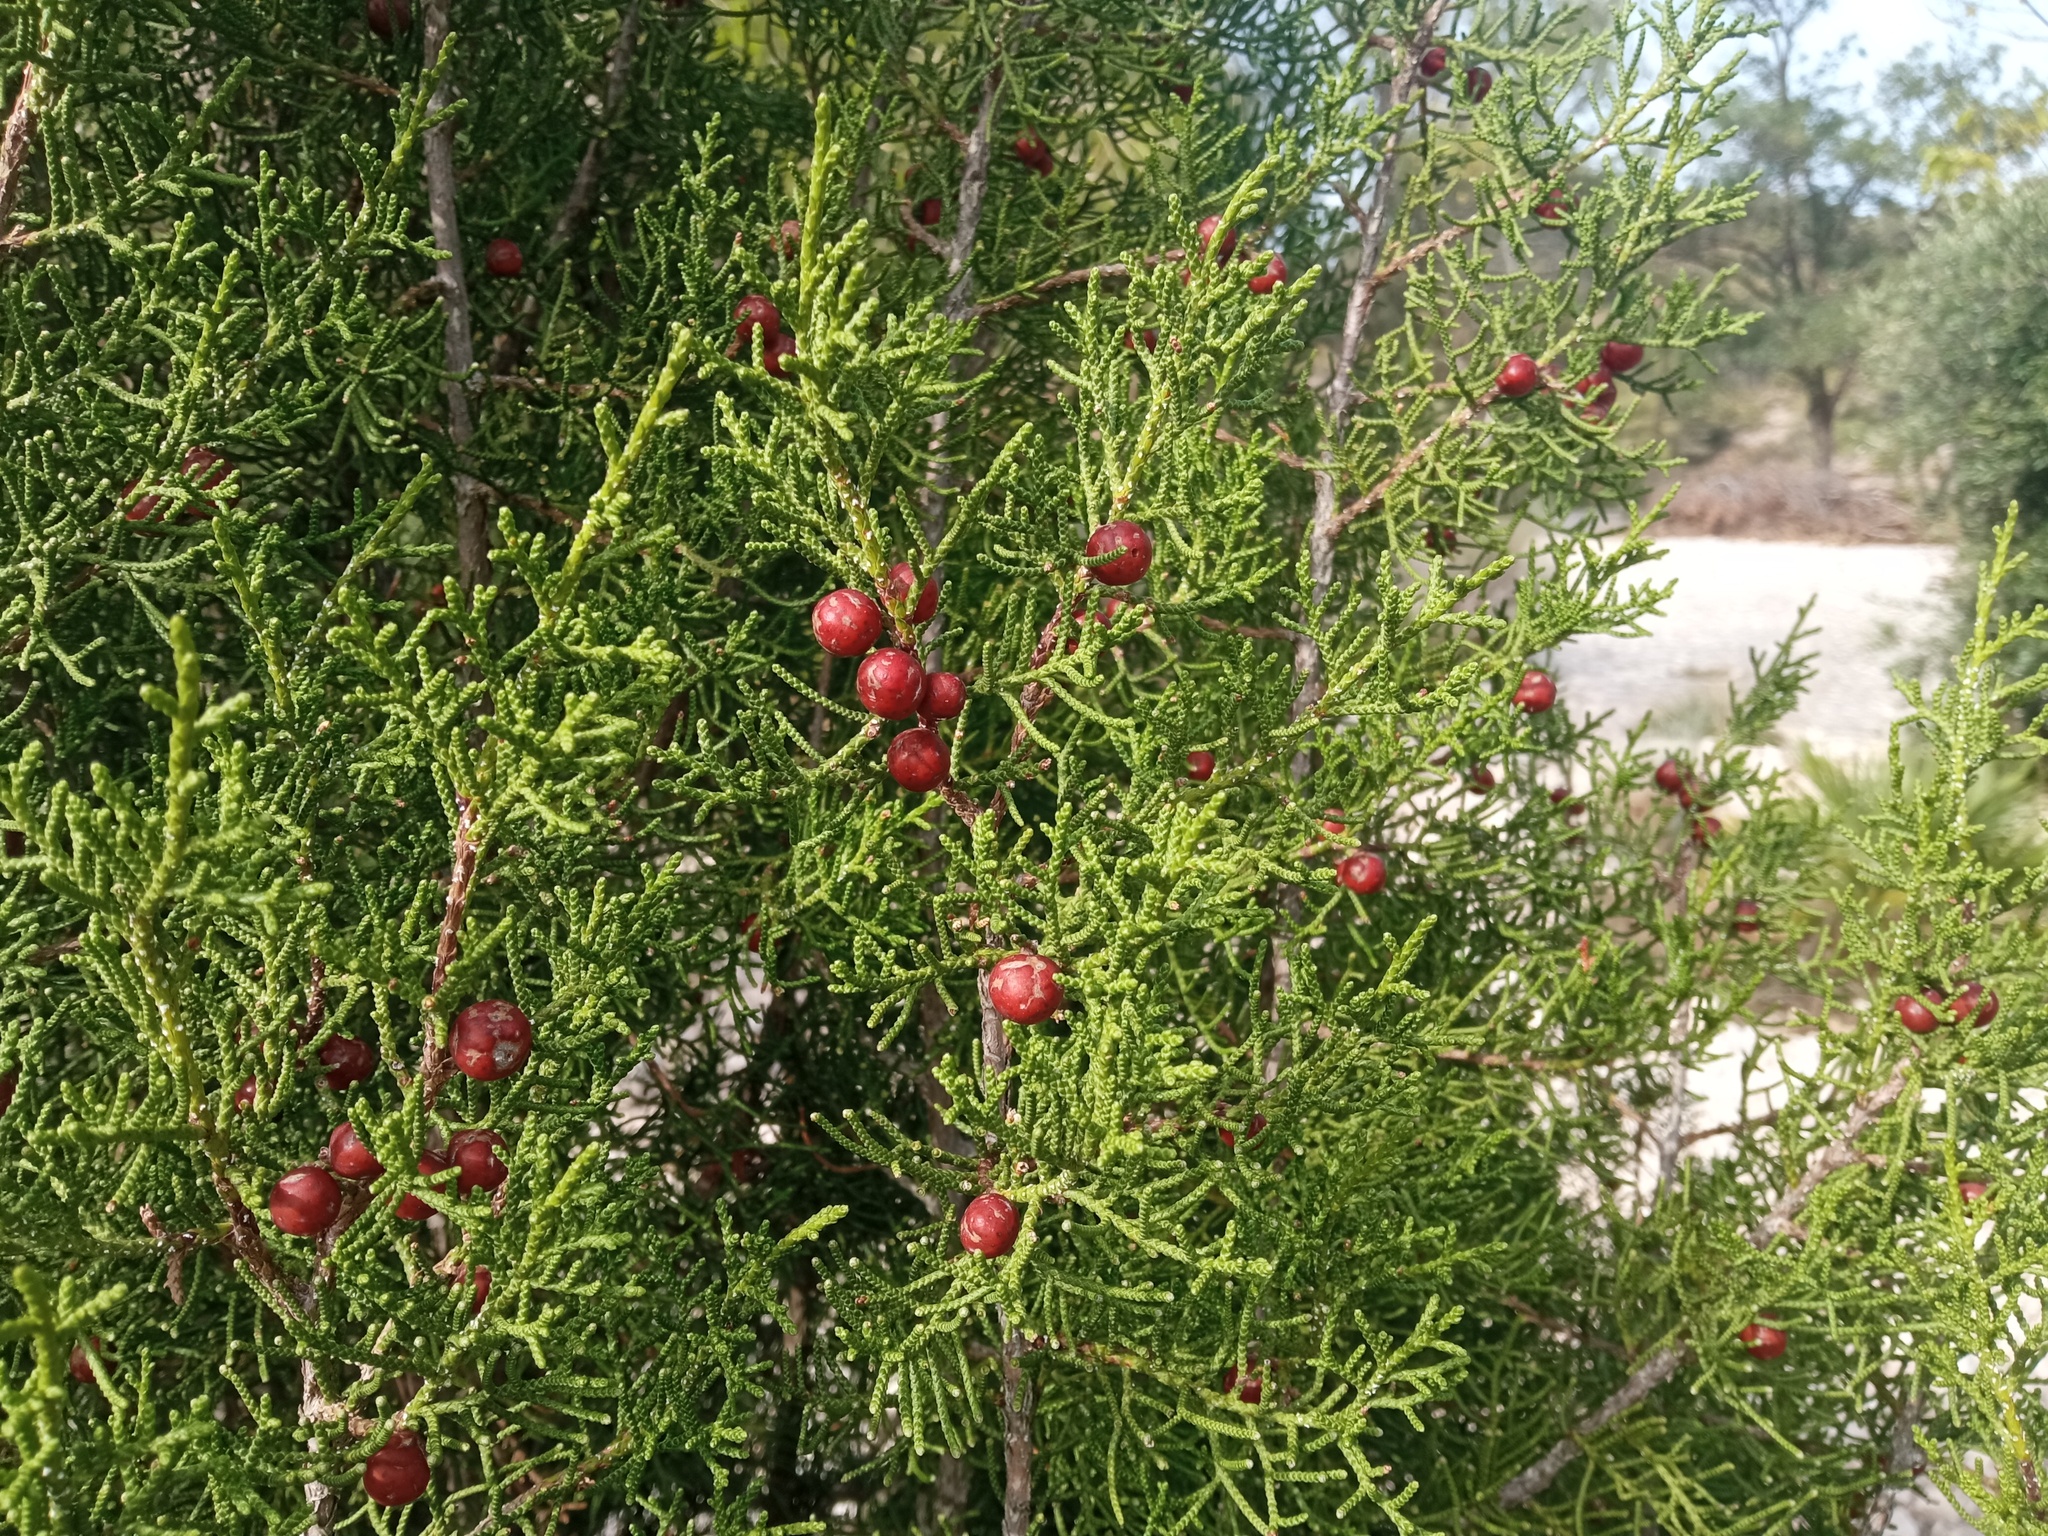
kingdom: Plantae
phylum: Tracheophyta
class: Pinopsida
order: Pinales
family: Cupressaceae
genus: Juniperus
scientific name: Juniperus phoenicea
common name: Phoenician juniper
